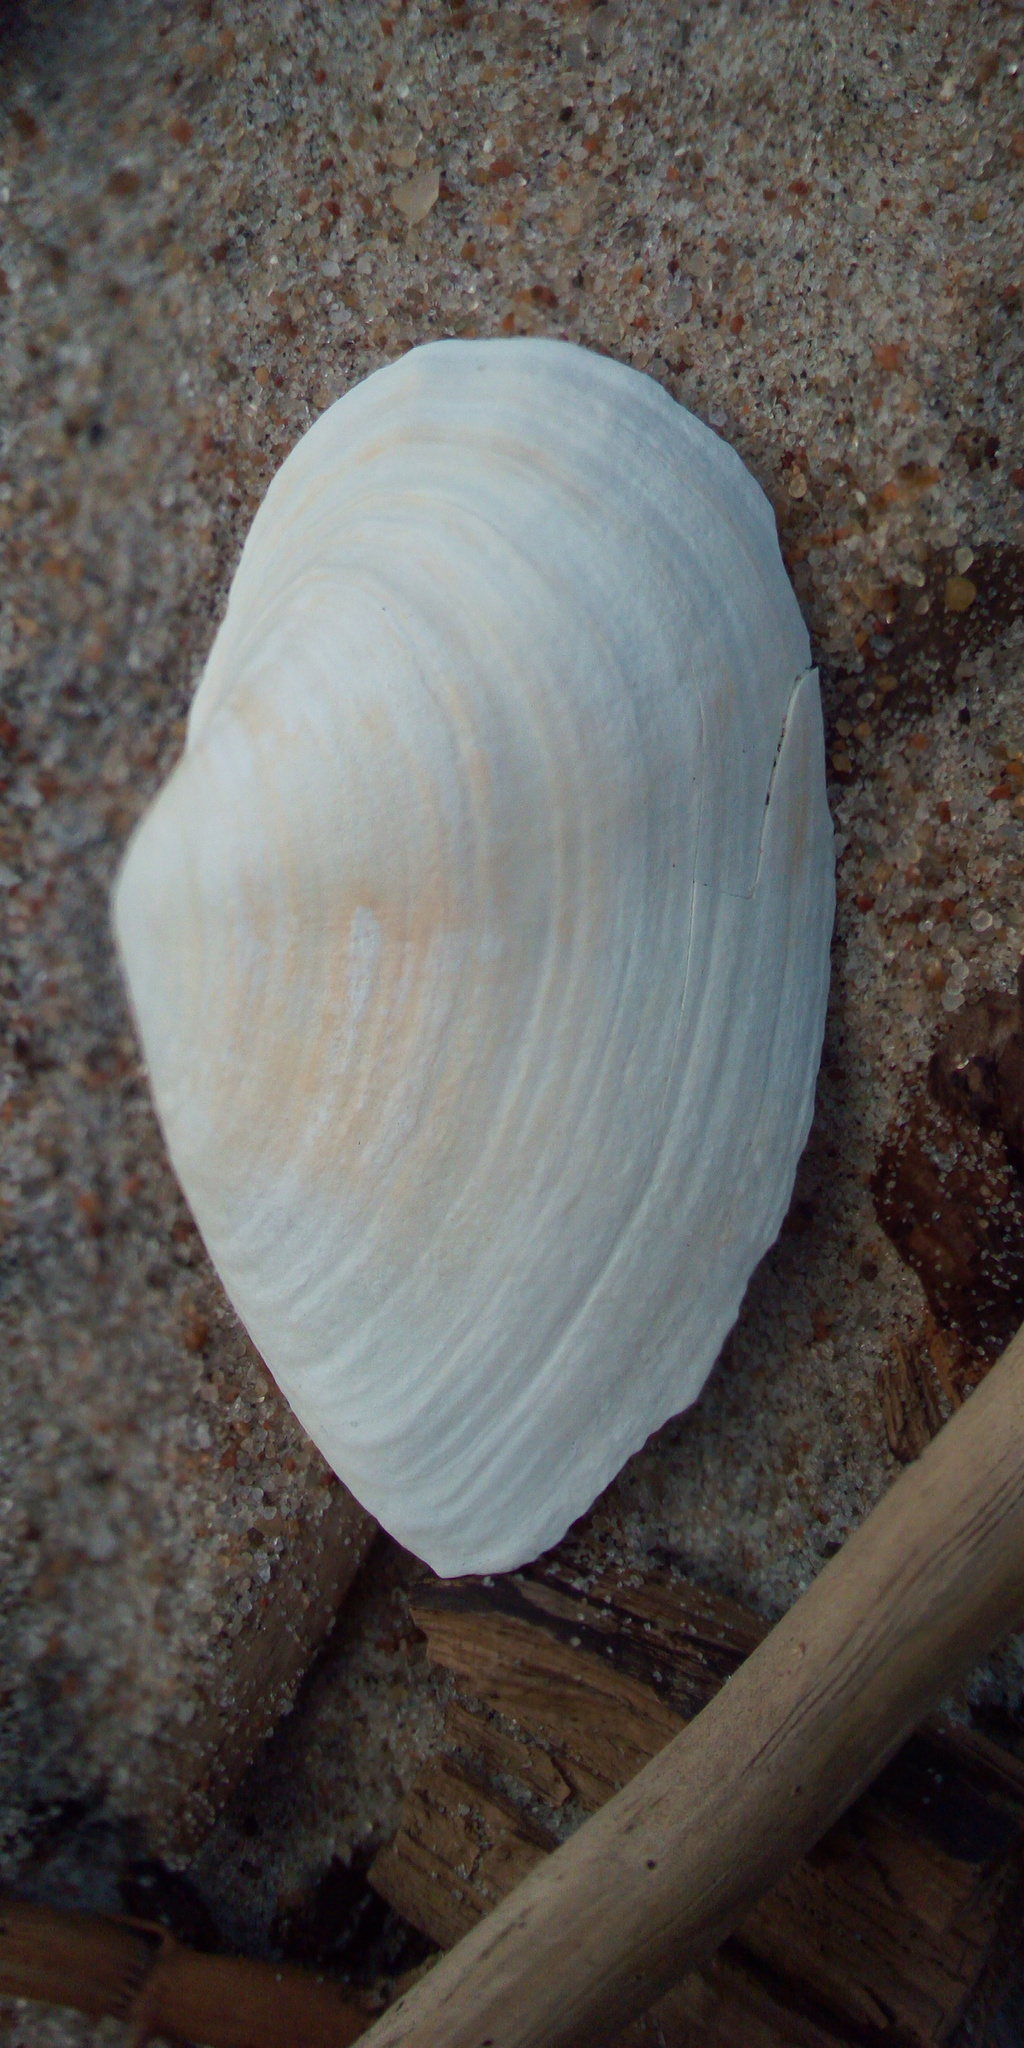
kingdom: Animalia
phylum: Mollusca
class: Bivalvia
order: Myida
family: Myidae
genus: Mya
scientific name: Mya arenaria
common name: Soft-shelled clam
